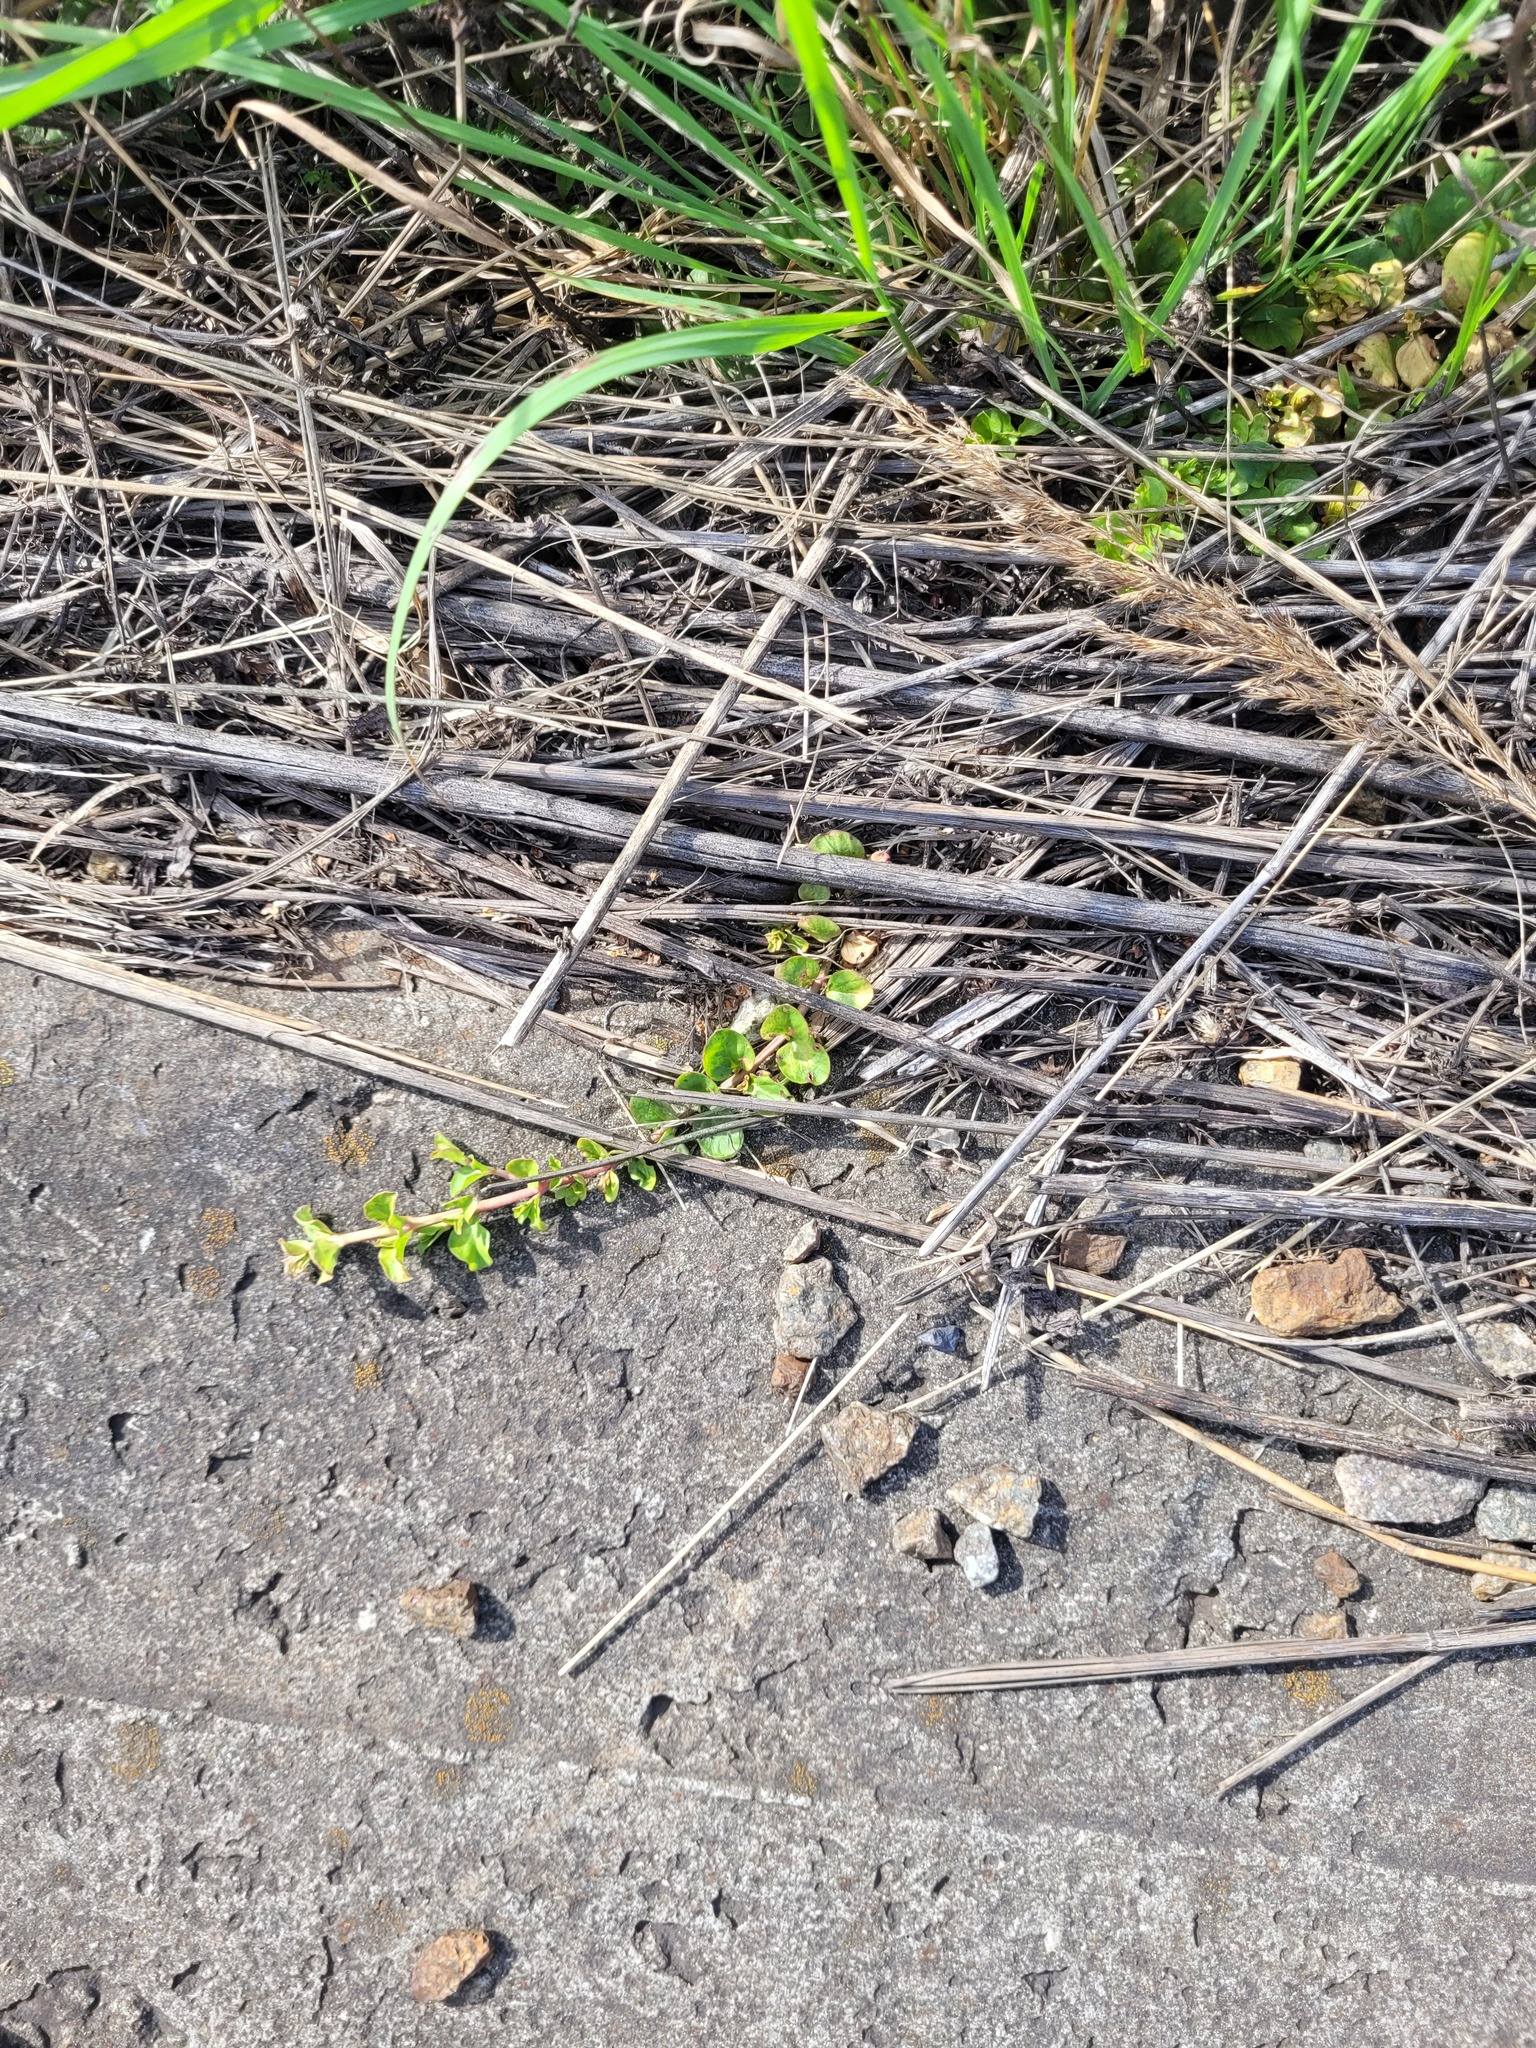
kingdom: Plantae
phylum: Tracheophyta
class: Magnoliopsida
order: Ericales
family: Primulaceae
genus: Lysimachia
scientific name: Lysimachia nummularia
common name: Moneywort
